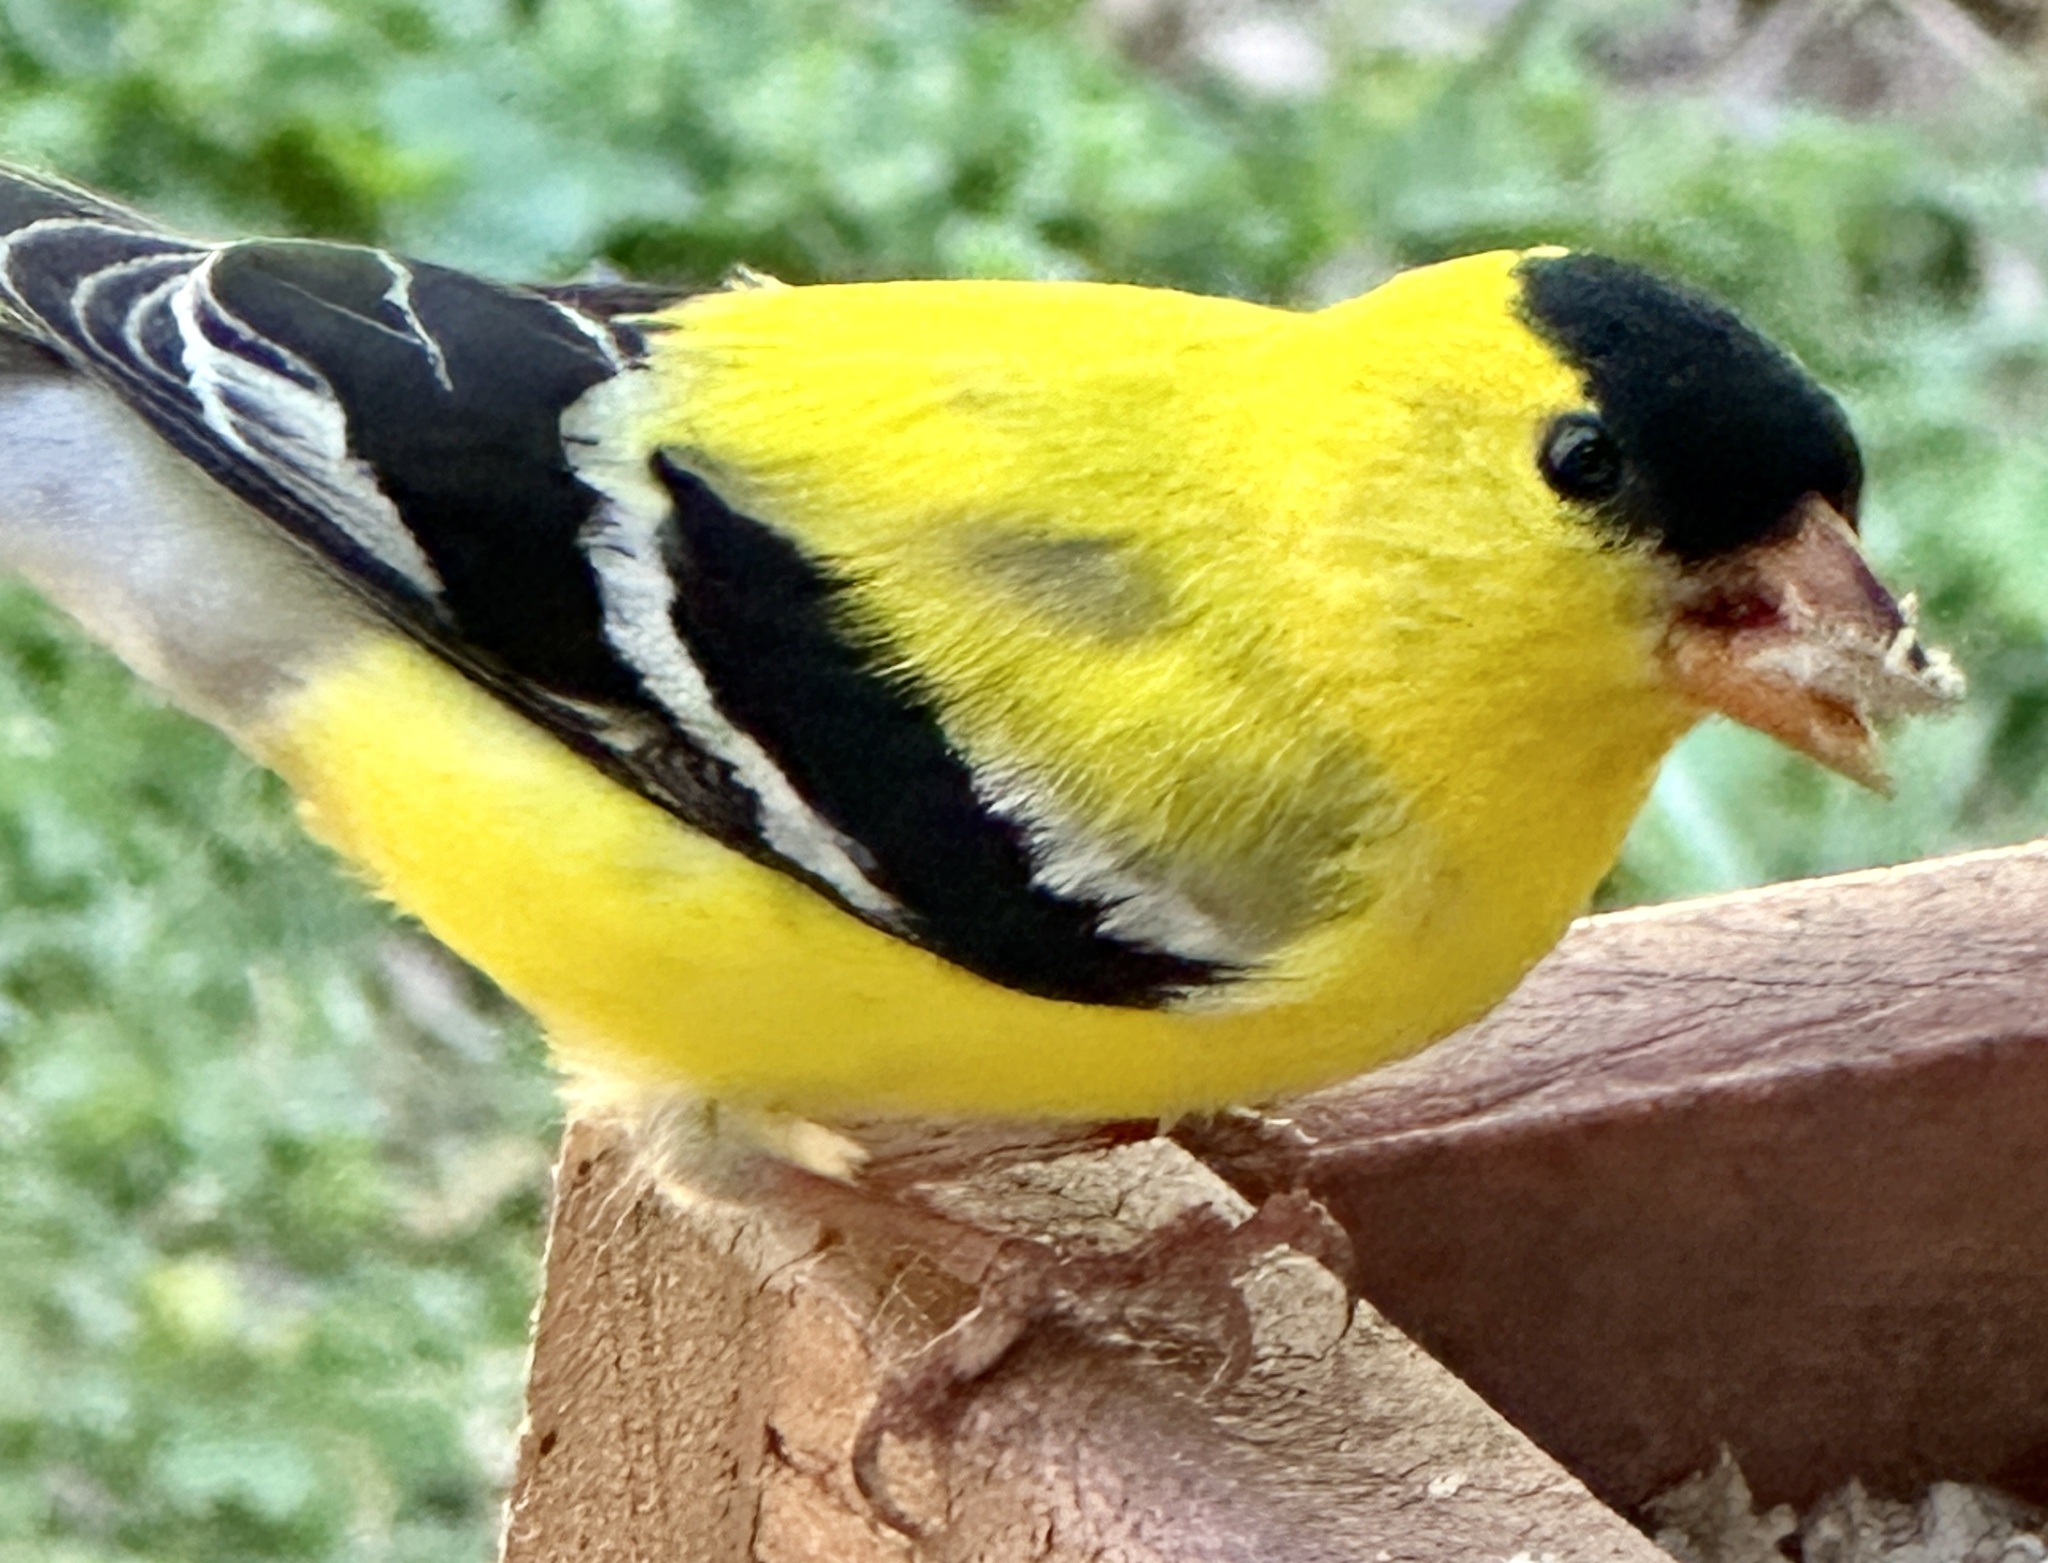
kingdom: Animalia
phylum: Chordata
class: Aves
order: Passeriformes
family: Fringillidae
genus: Spinus
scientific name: Spinus tristis
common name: American goldfinch
